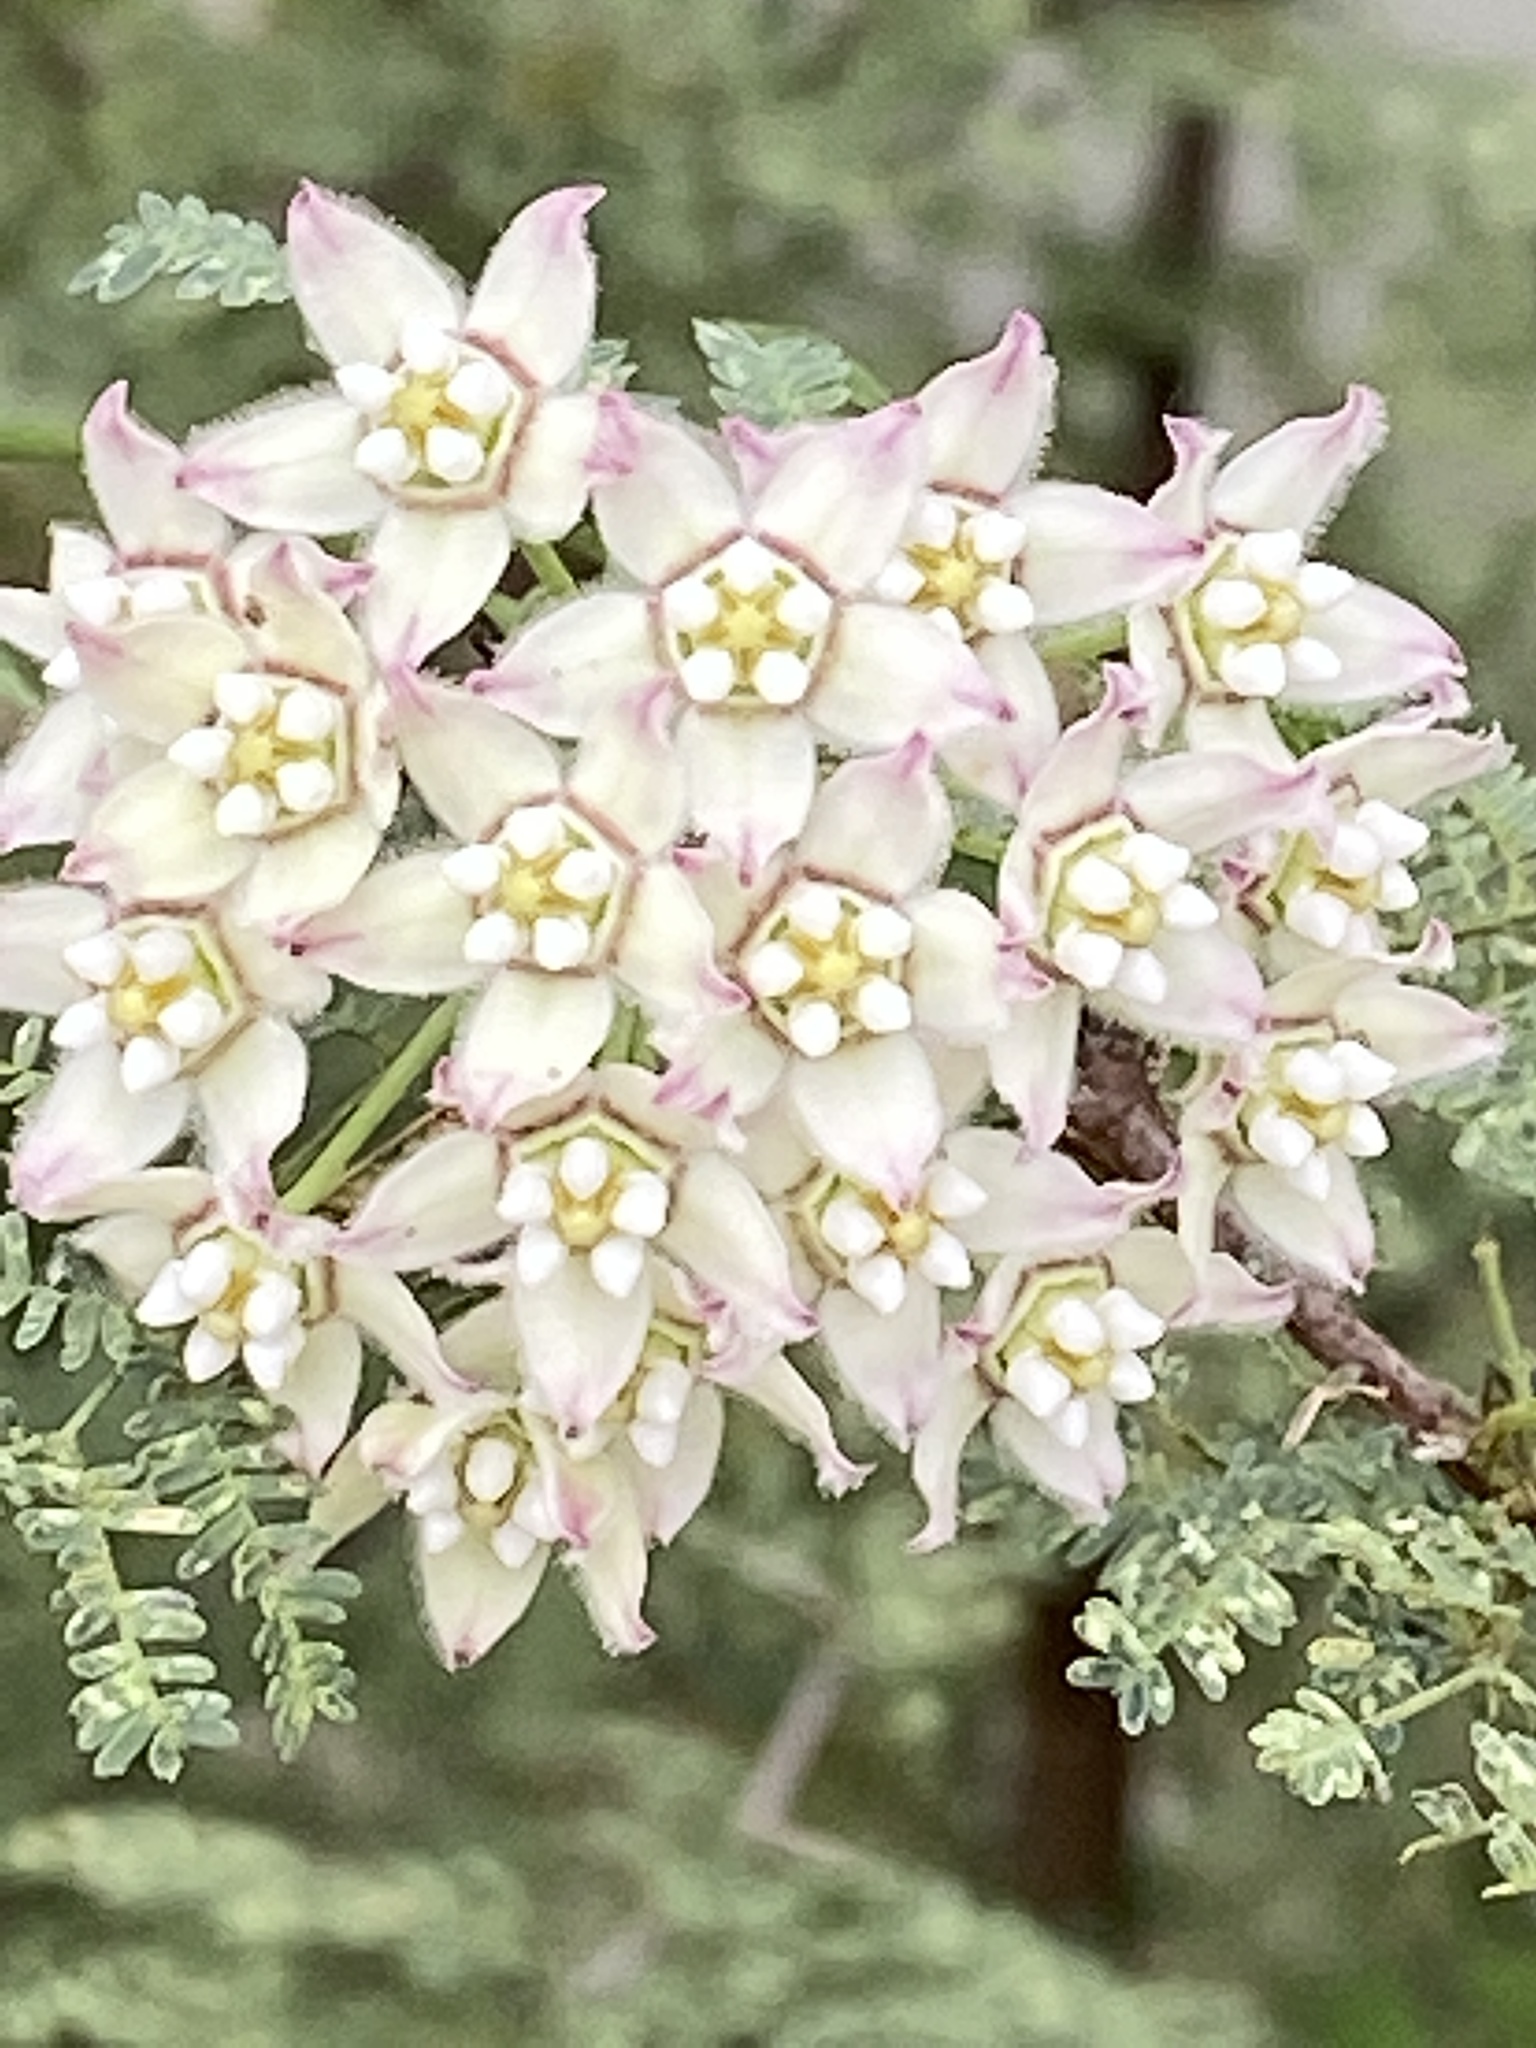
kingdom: Plantae
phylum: Tracheophyta
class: Magnoliopsida
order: Gentianales
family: Apocynaceae
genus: Funastrum
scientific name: Funastrum cynanchoides
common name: Climbing-milkweed
